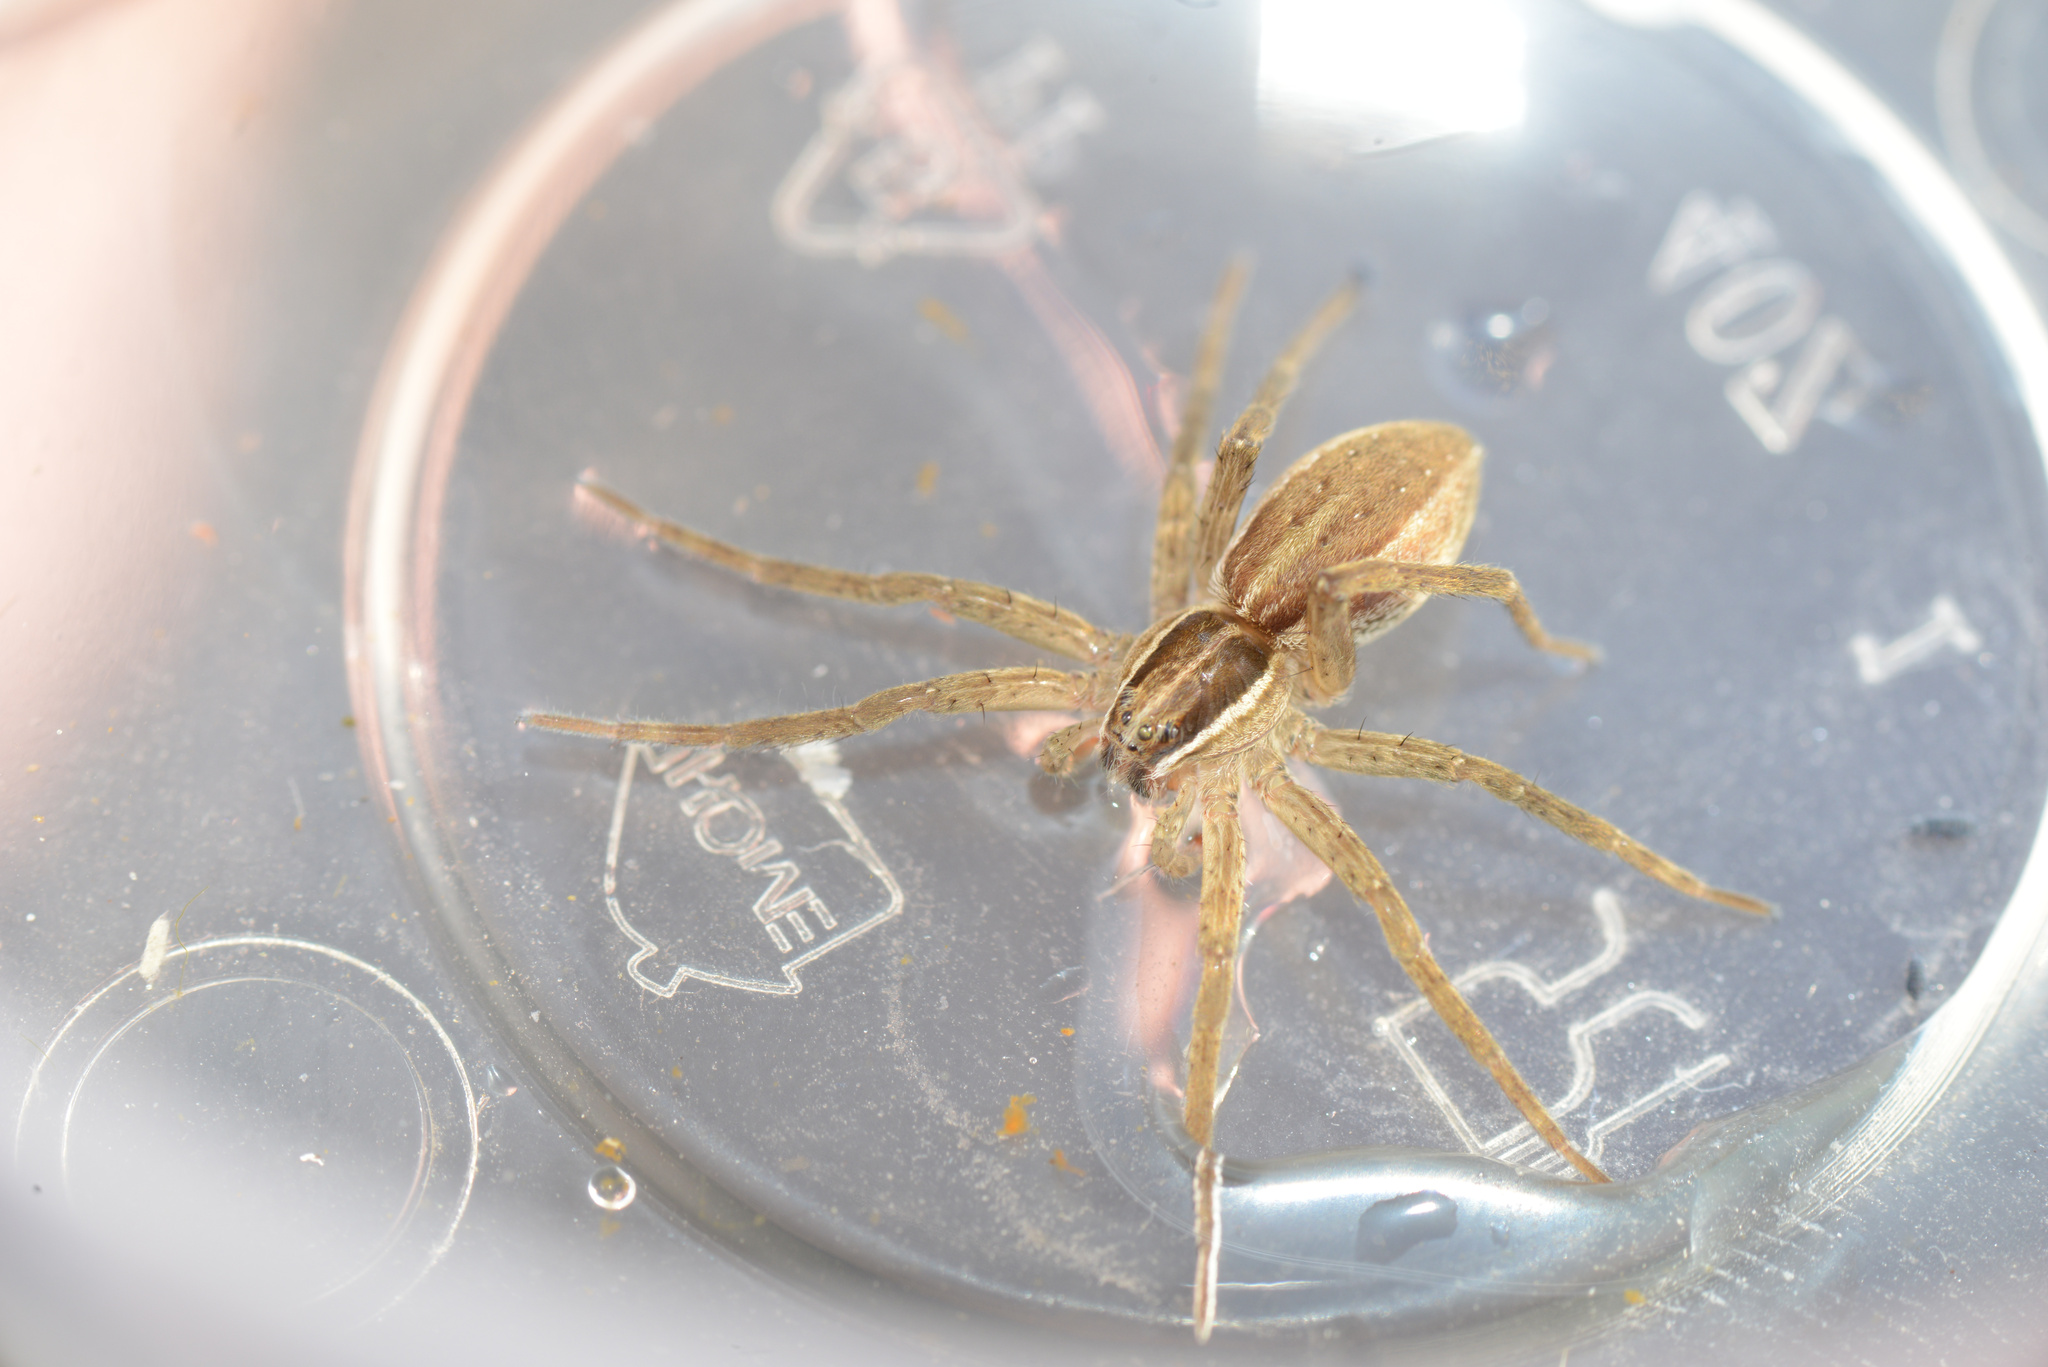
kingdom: Animalia
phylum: Arthropoda
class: Arachnida
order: Araneae
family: Pisauridae
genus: Dolomedes
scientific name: Dolomedes minor
